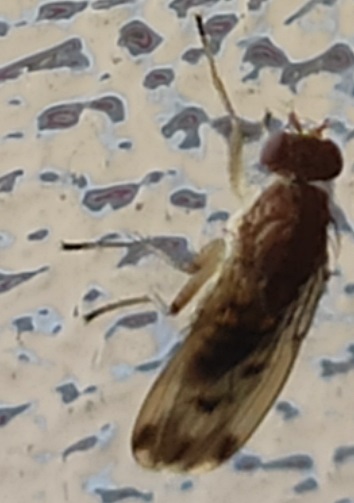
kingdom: Animalia
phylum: Arthropoda
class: Insecta
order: Diptera
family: Heleomyzidae
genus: Suillia
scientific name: Suillia variegata
